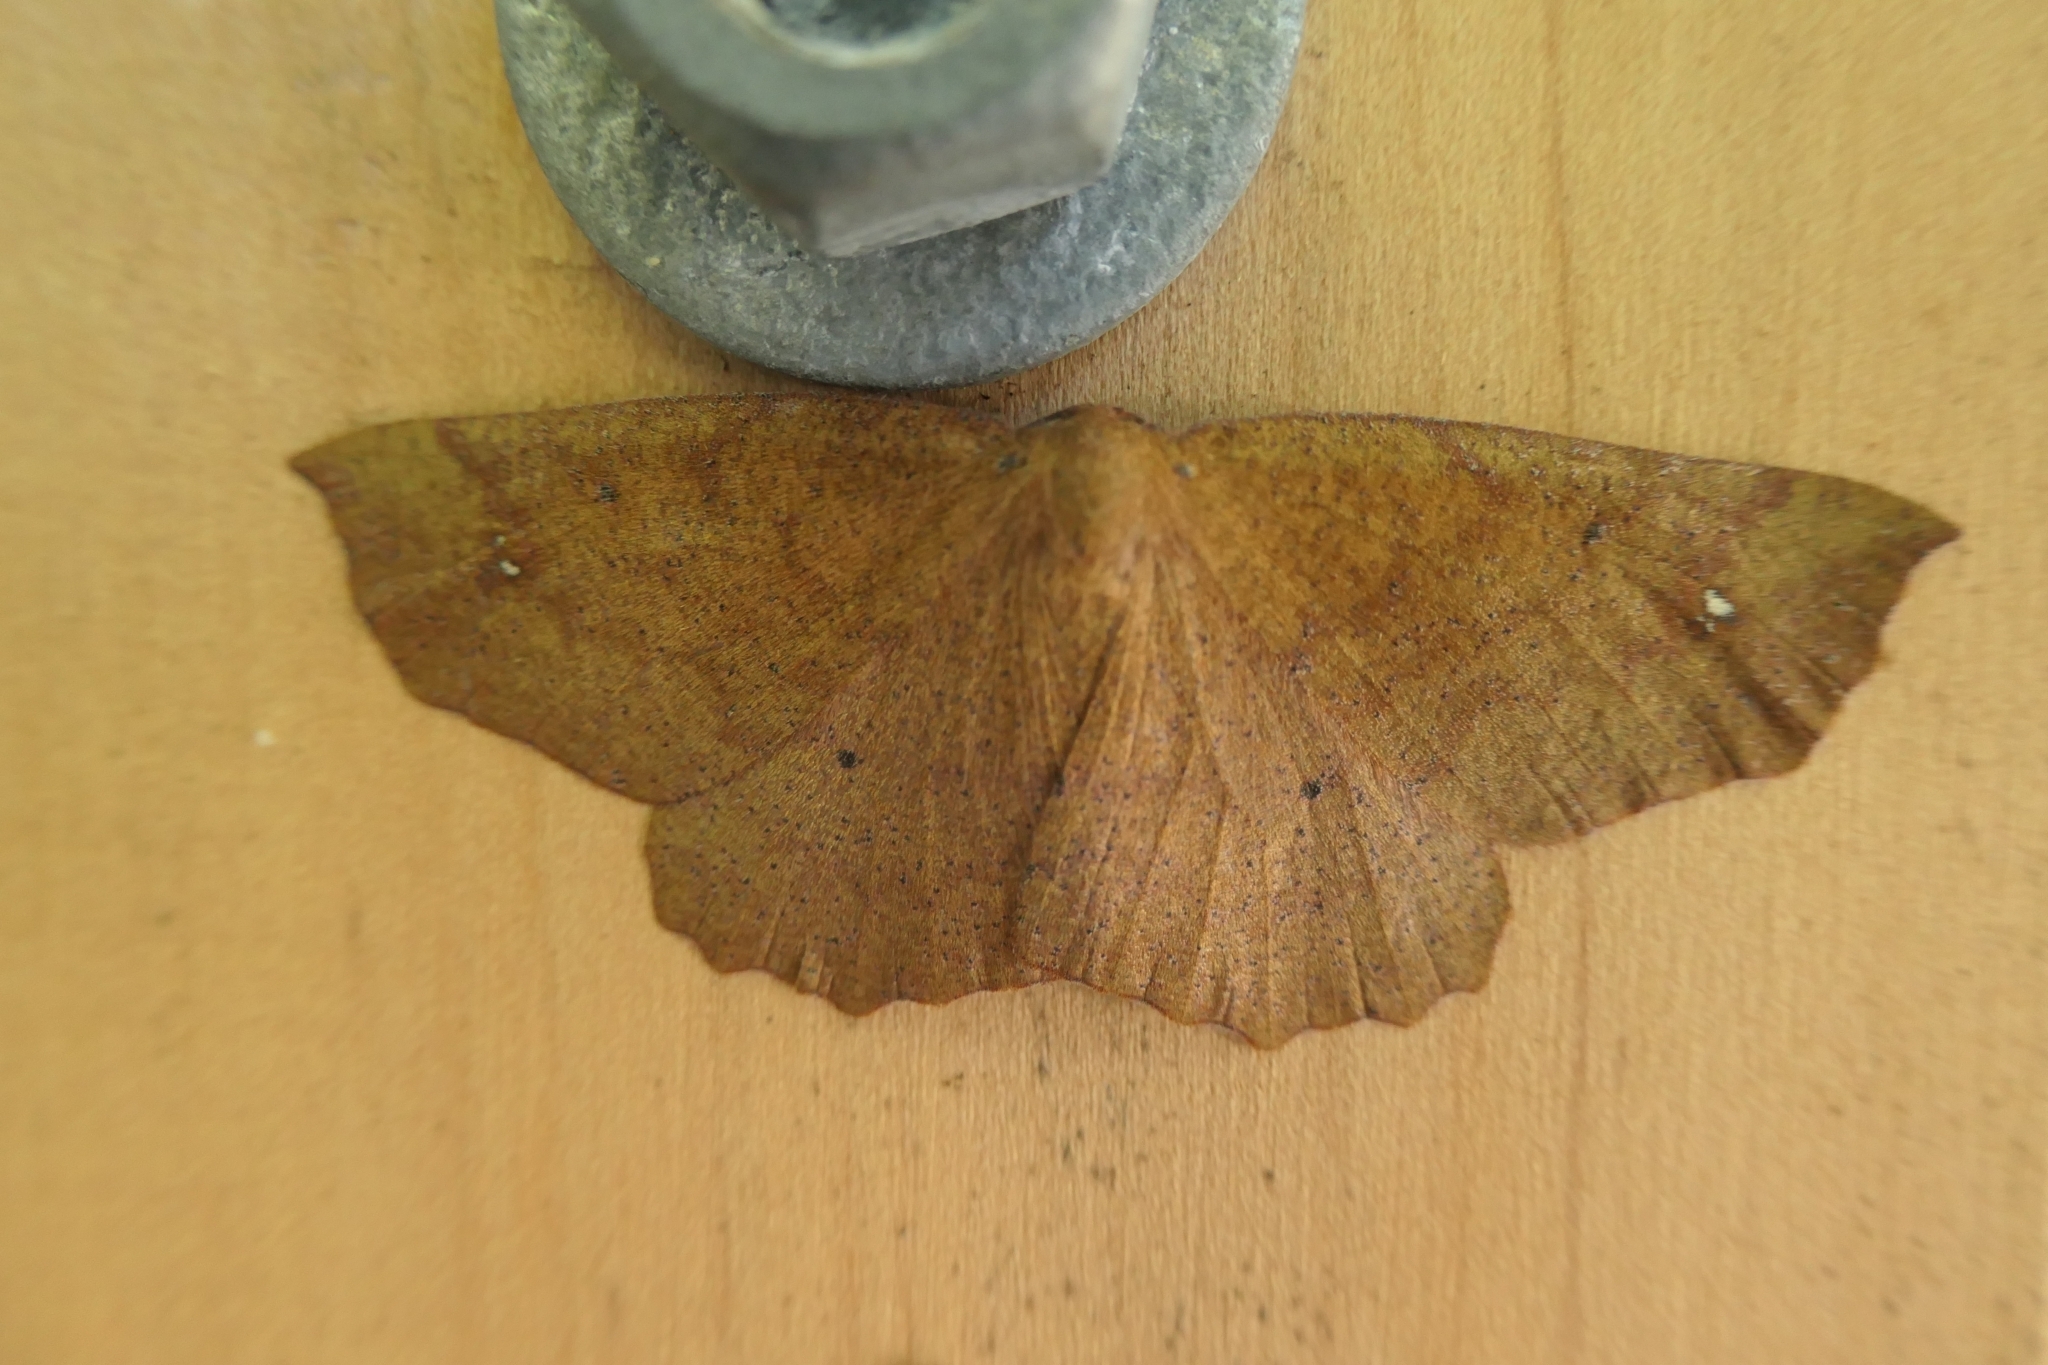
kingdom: Animalia
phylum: Arthropoda
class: Insecta
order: Lepidoptera
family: Geometridae
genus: Xyridacma
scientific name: Xyridacma ustaria
